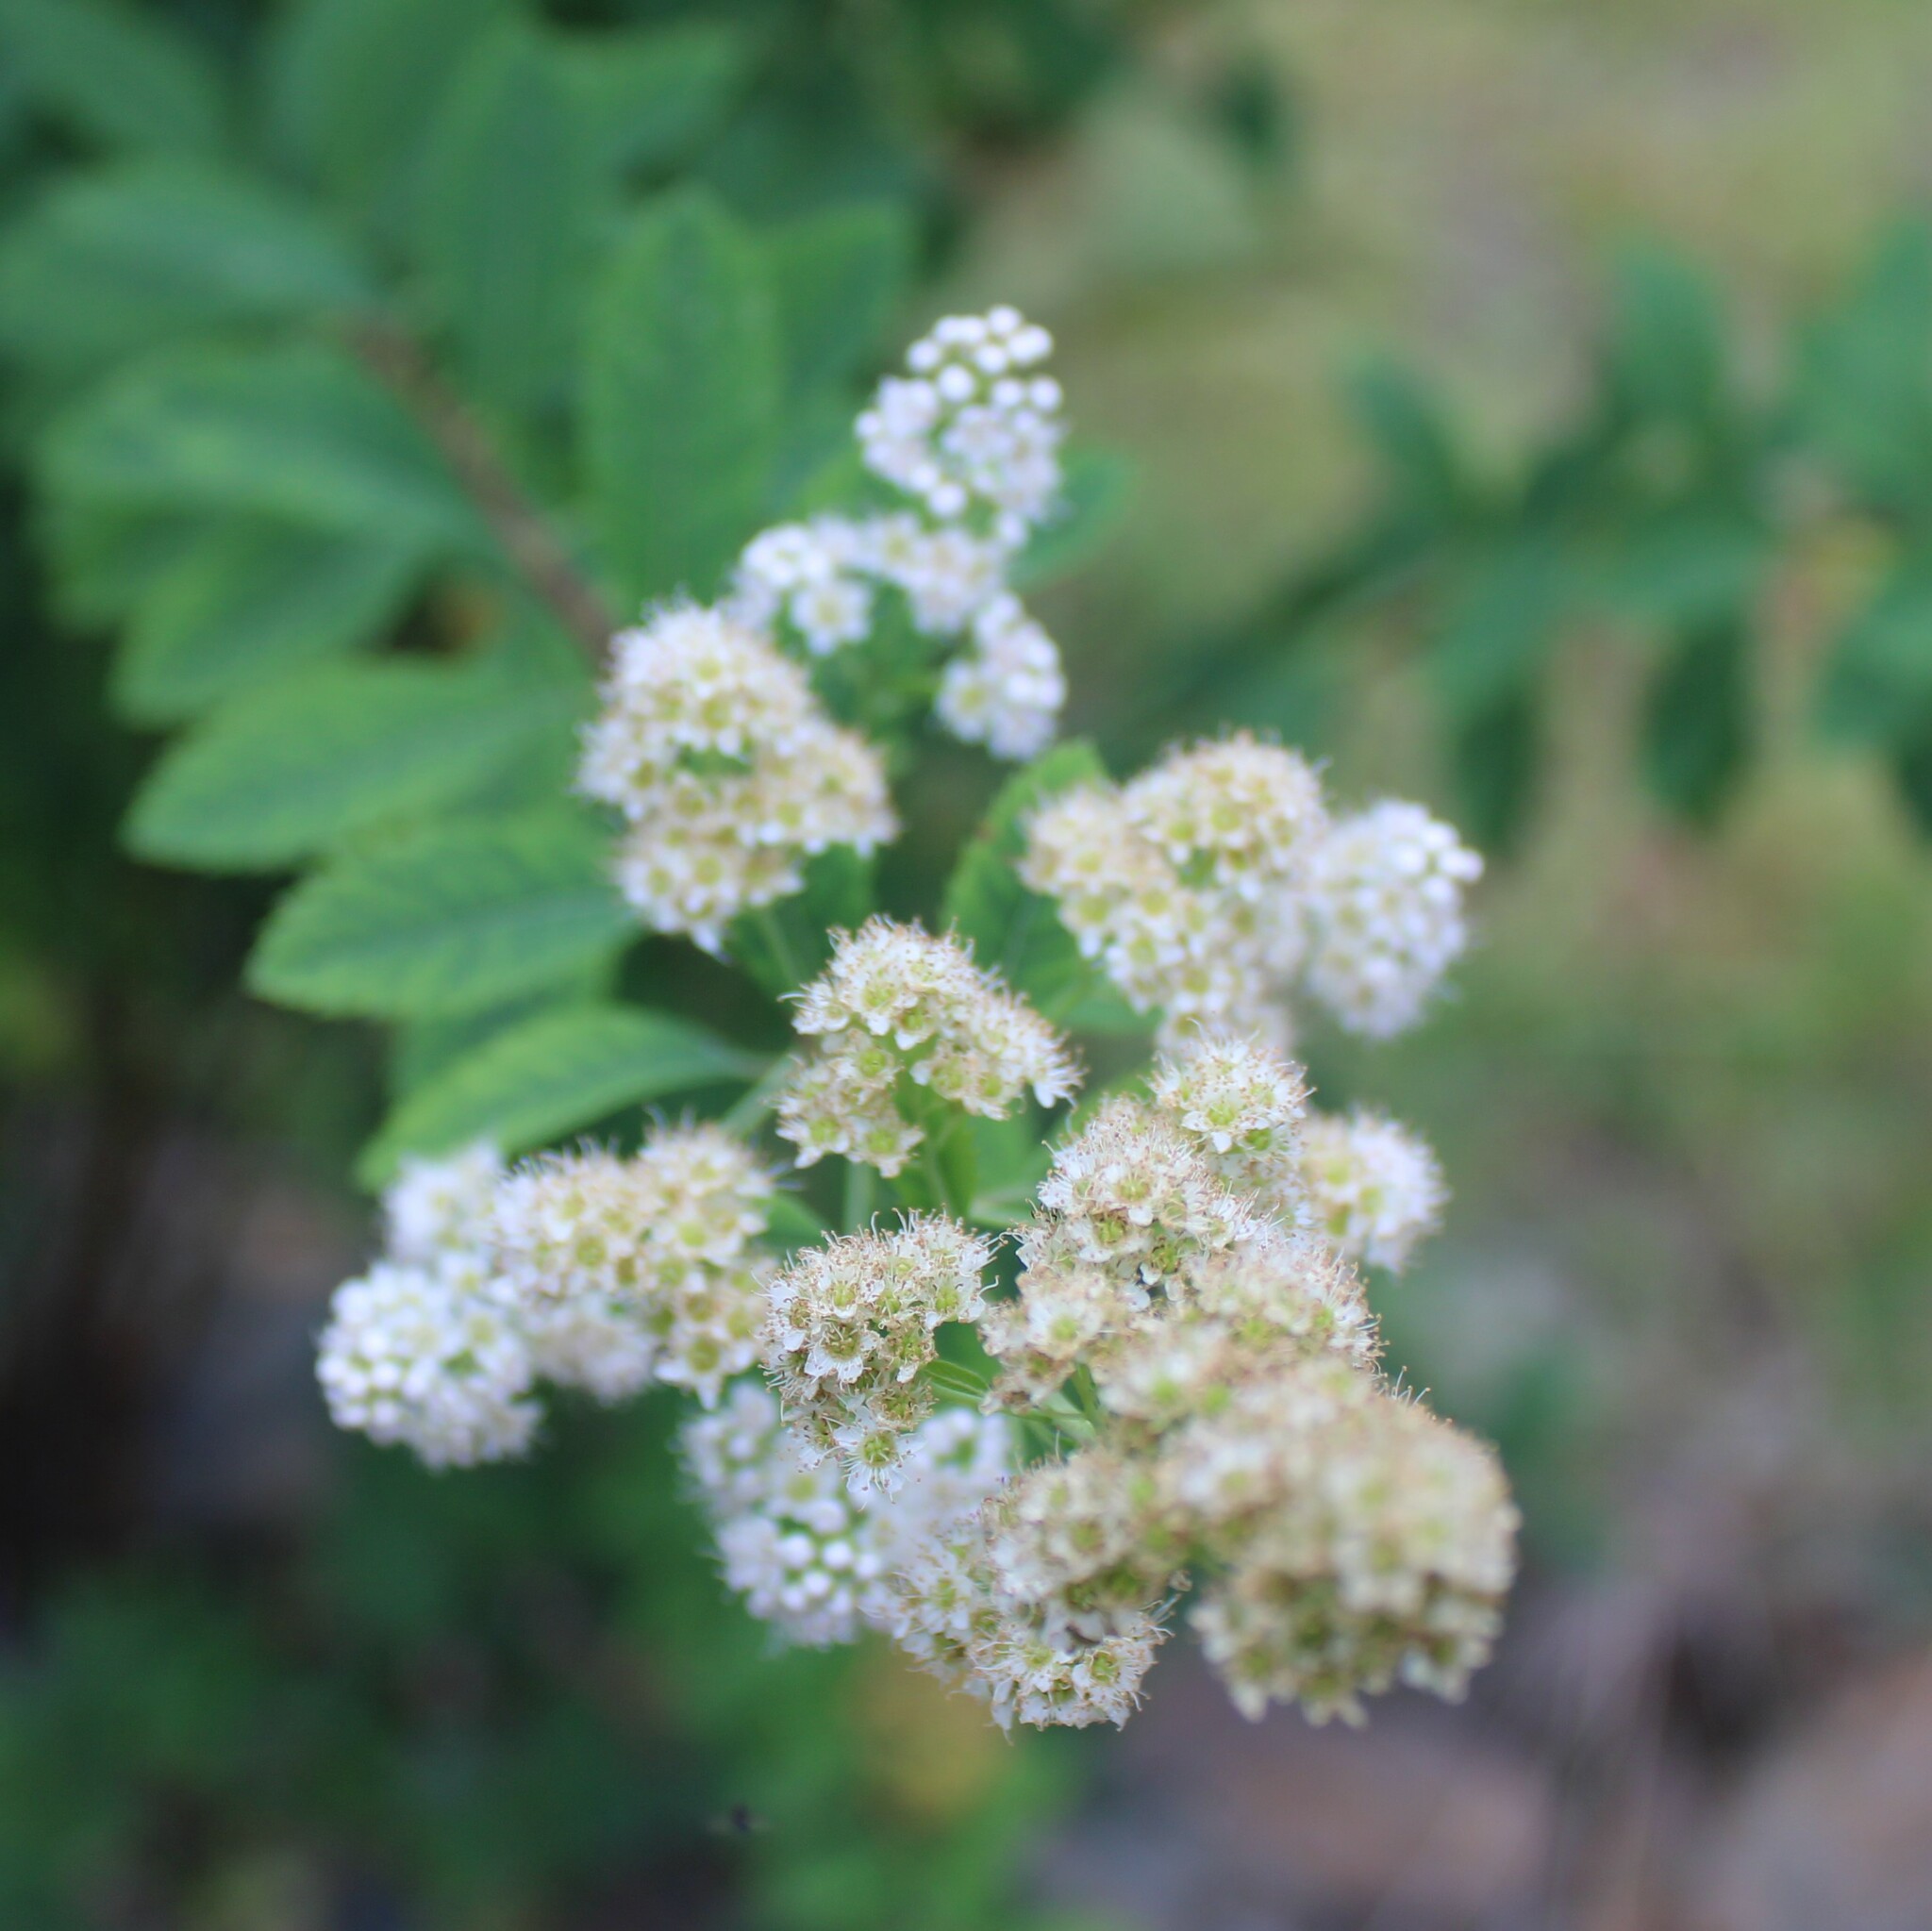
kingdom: Plantae
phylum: Tracheophyta
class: Magnoliopsida
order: Rosales
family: Rosaceae
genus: Spiraea
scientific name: Spiraea alba
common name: Pale bridewort
